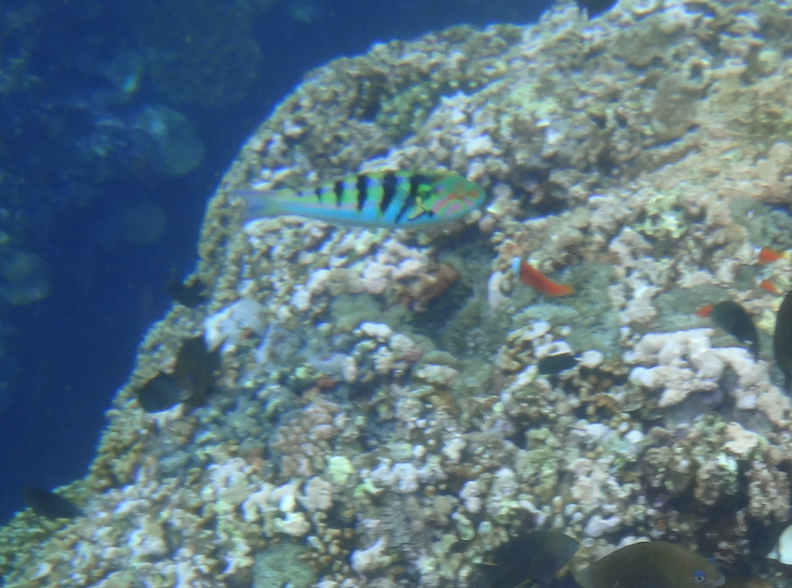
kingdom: Animalia
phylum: Chordata
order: Perciformes
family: Labridae
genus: Thalassoma
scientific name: Thalassoma hardwicke
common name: Sixbar wrasse
